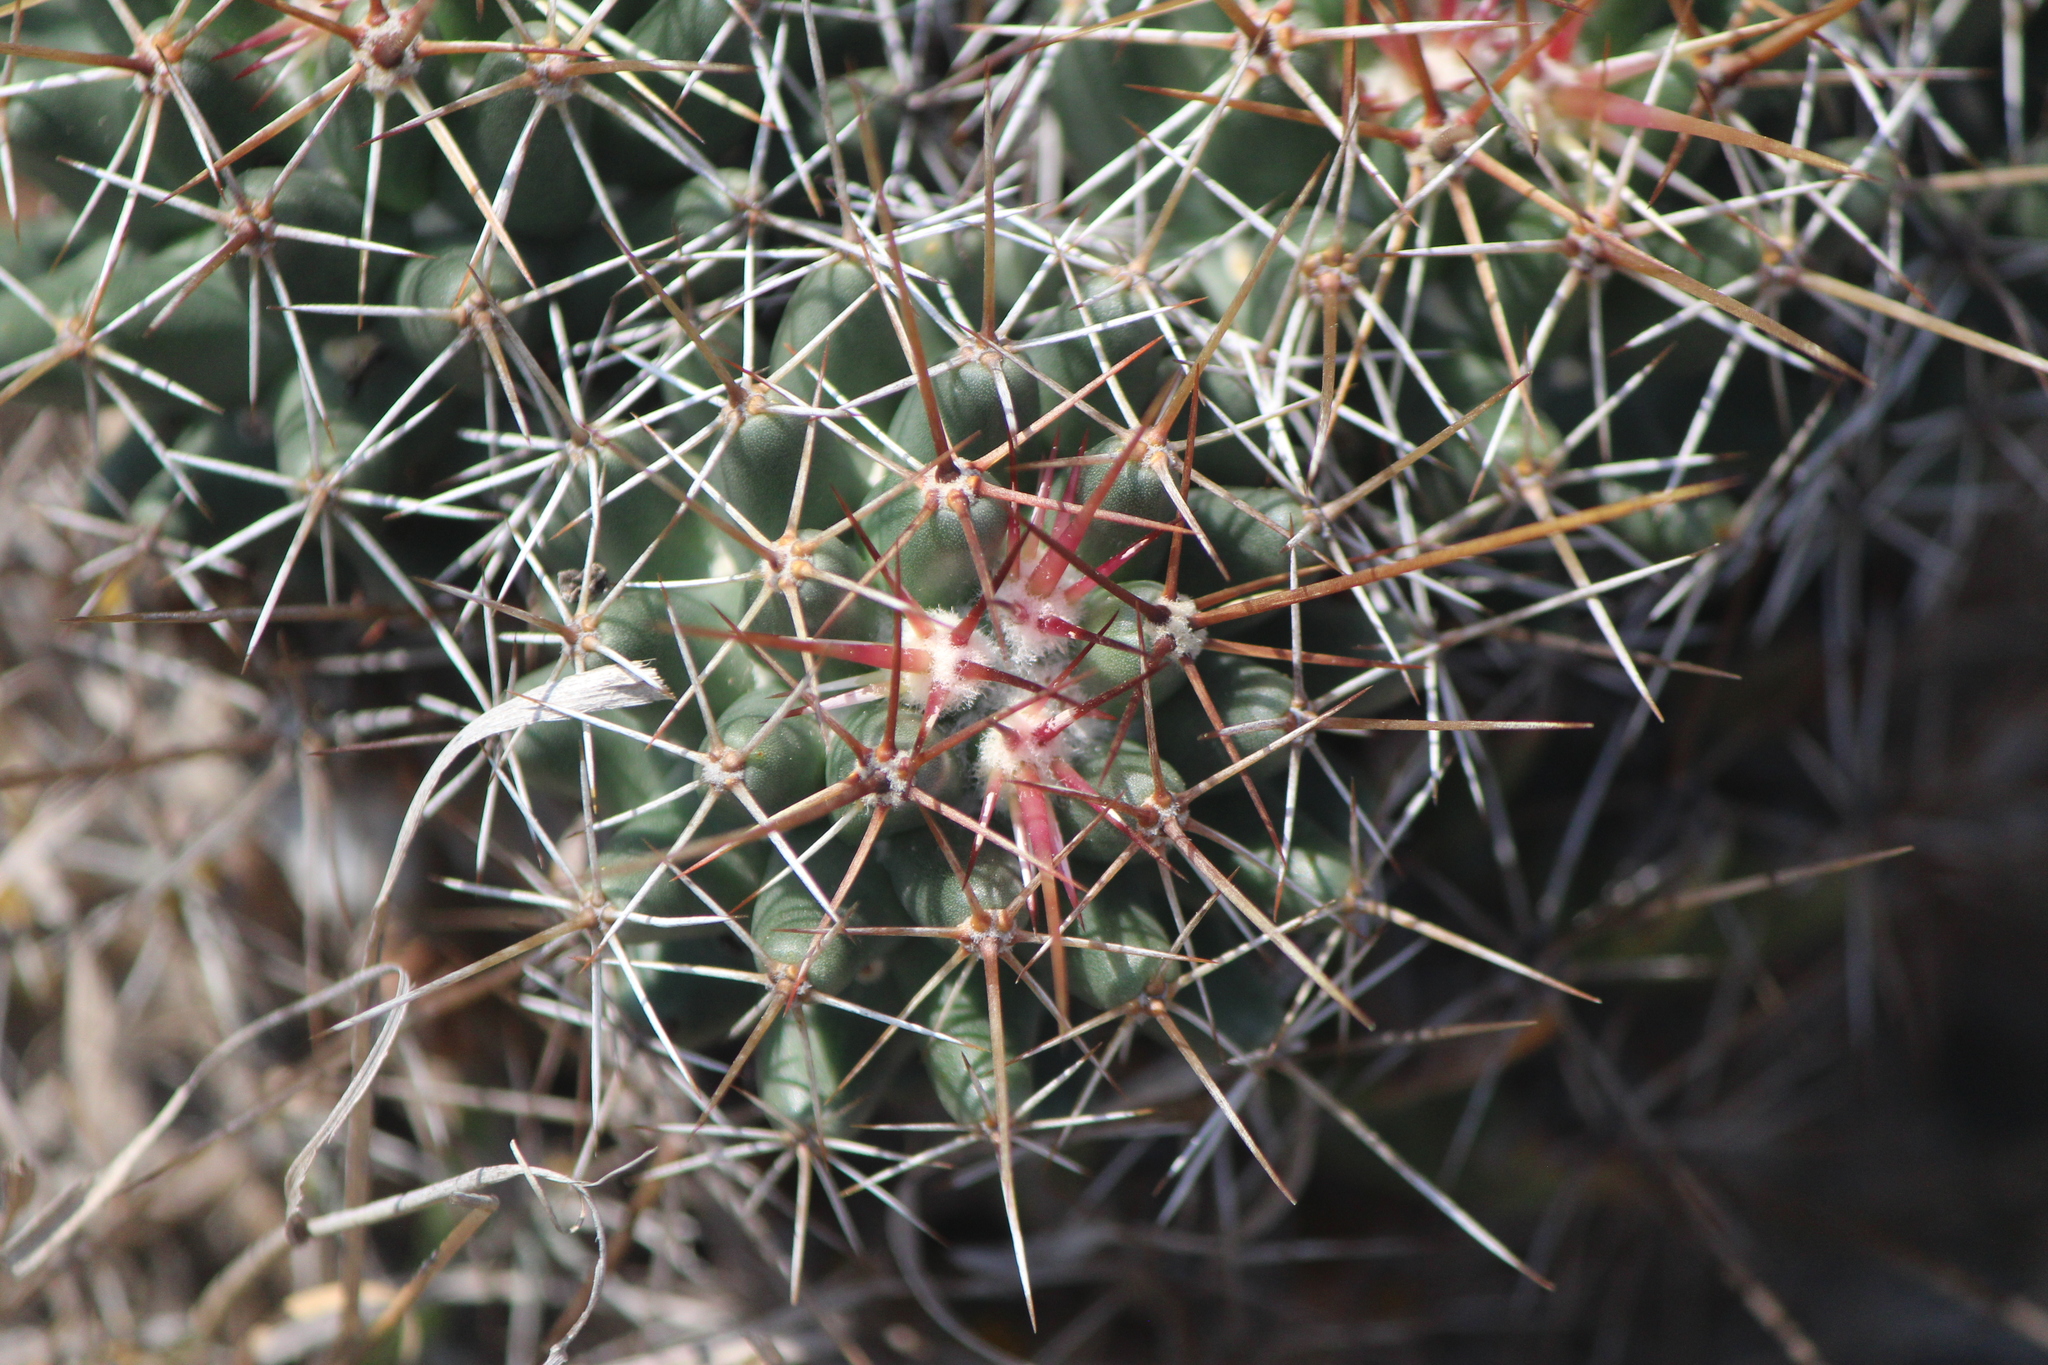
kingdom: Plantae
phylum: Tracheophyta
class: Magnoliopsida
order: Caryophyllales
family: Cactaceae
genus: Coryphantha
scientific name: Coryphantha octacantha
